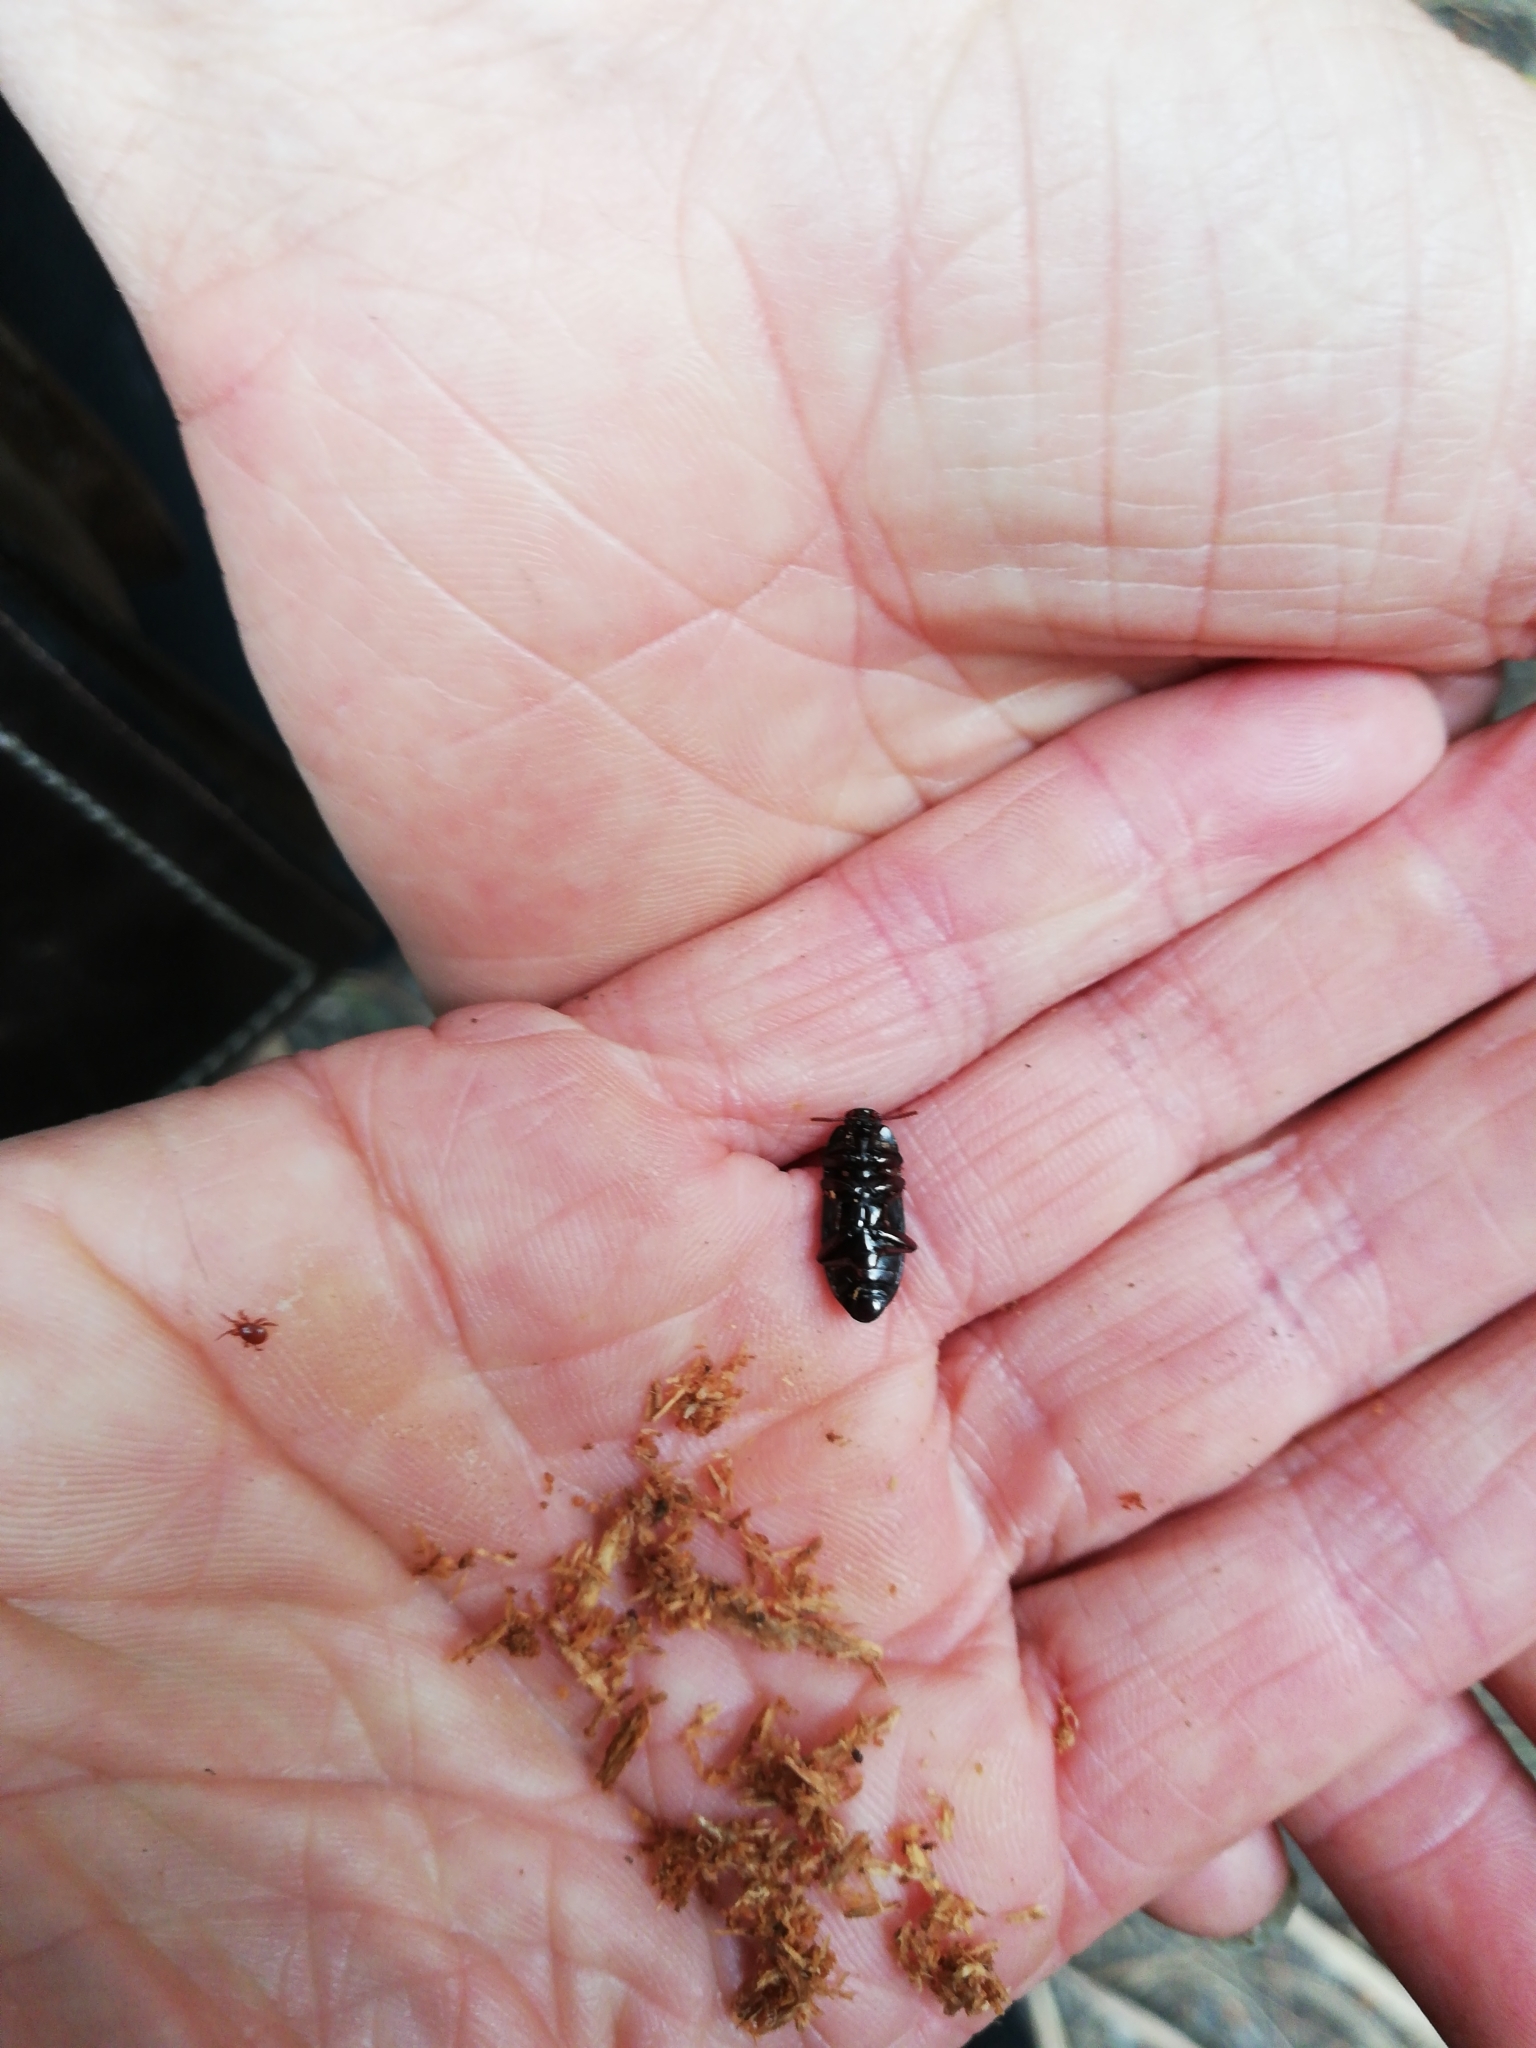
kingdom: Animalia
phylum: Arthropoda
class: Insecta
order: Coleoptera
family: Tenebrionidae
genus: Uloma
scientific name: Uloma tenebrionoides
